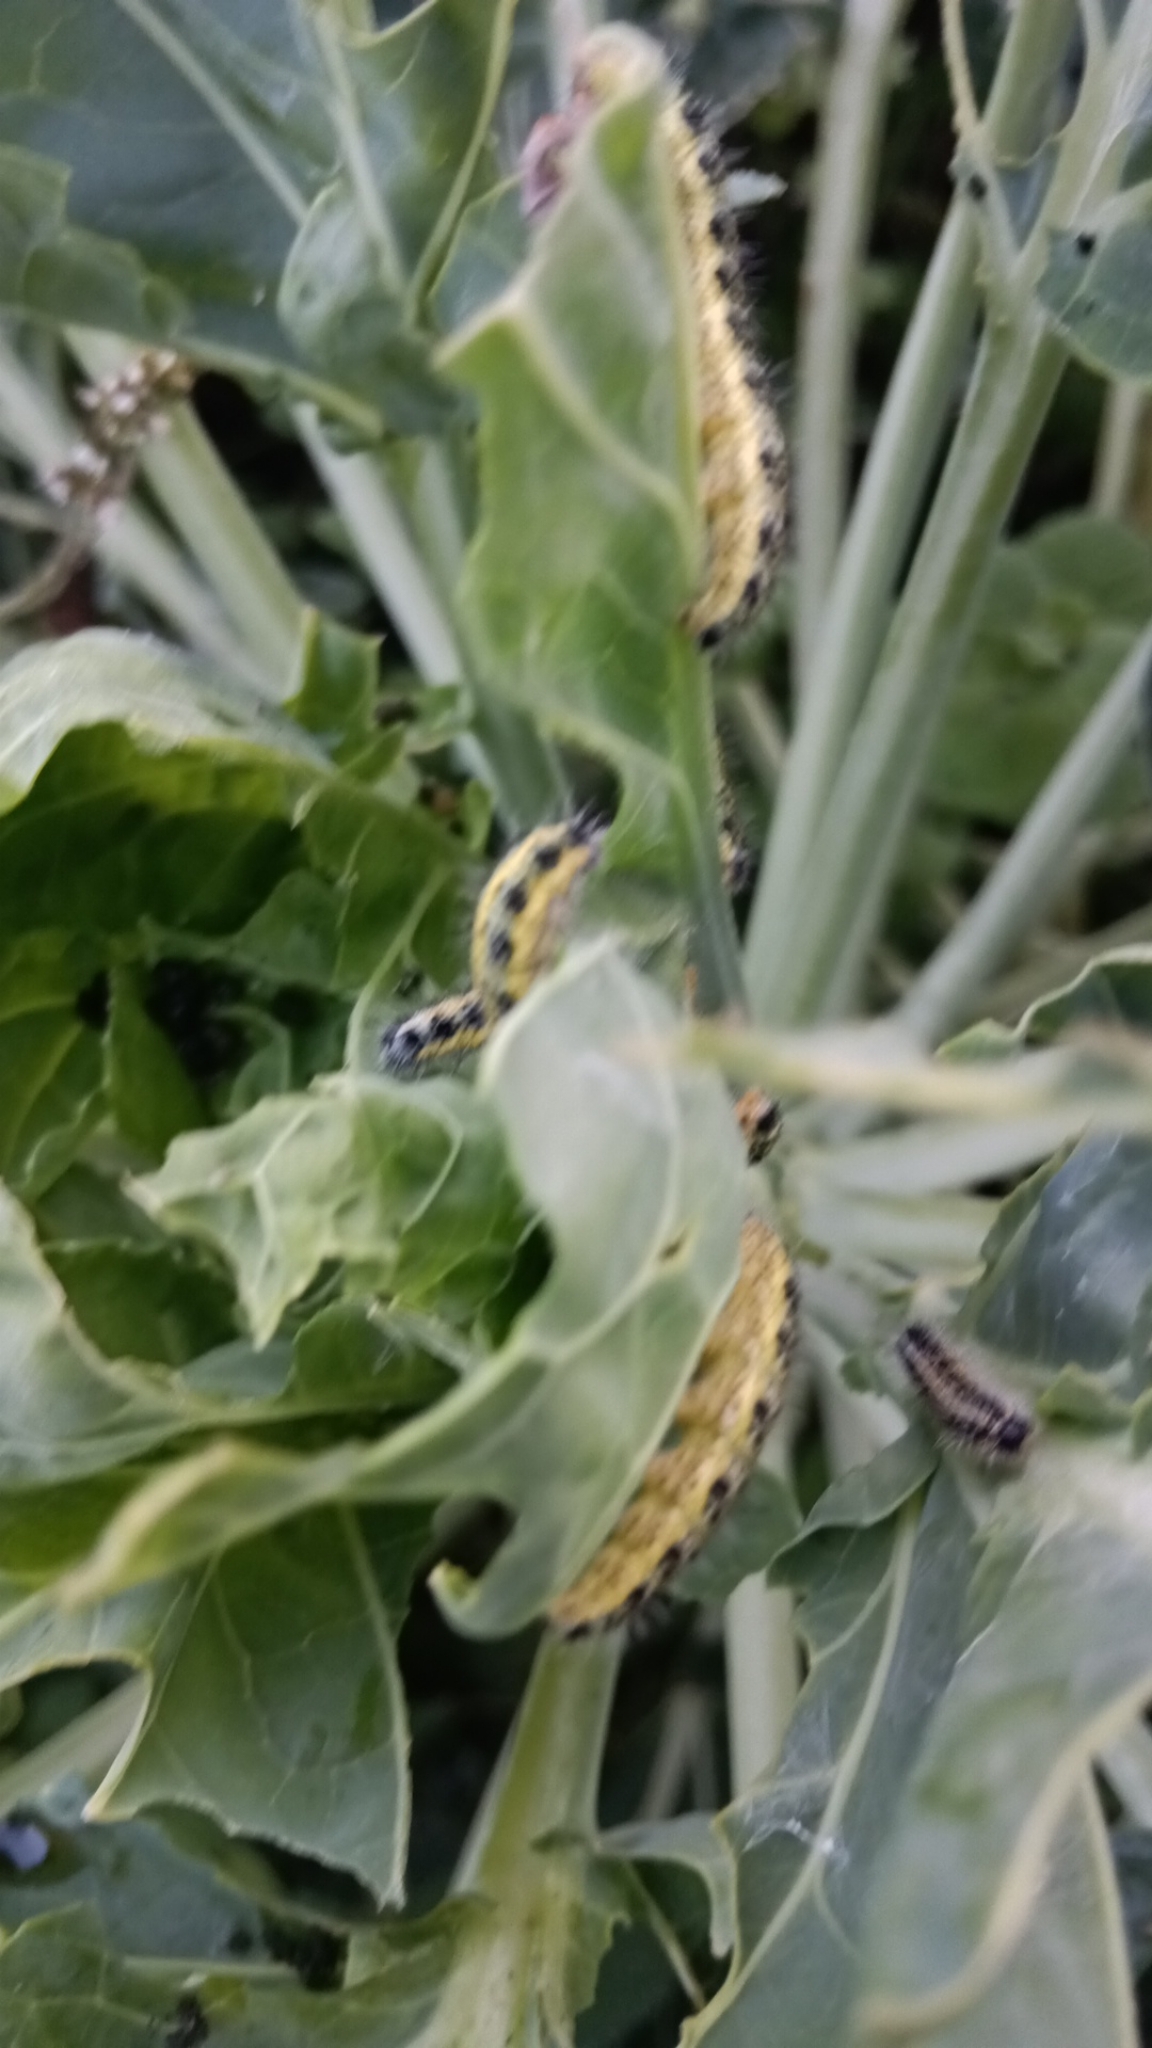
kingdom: Animalia
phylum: Arthropoda
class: Insecta
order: Lepidoptera
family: Pieridae
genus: Pieris
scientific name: Pieris brassicae
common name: Large white
